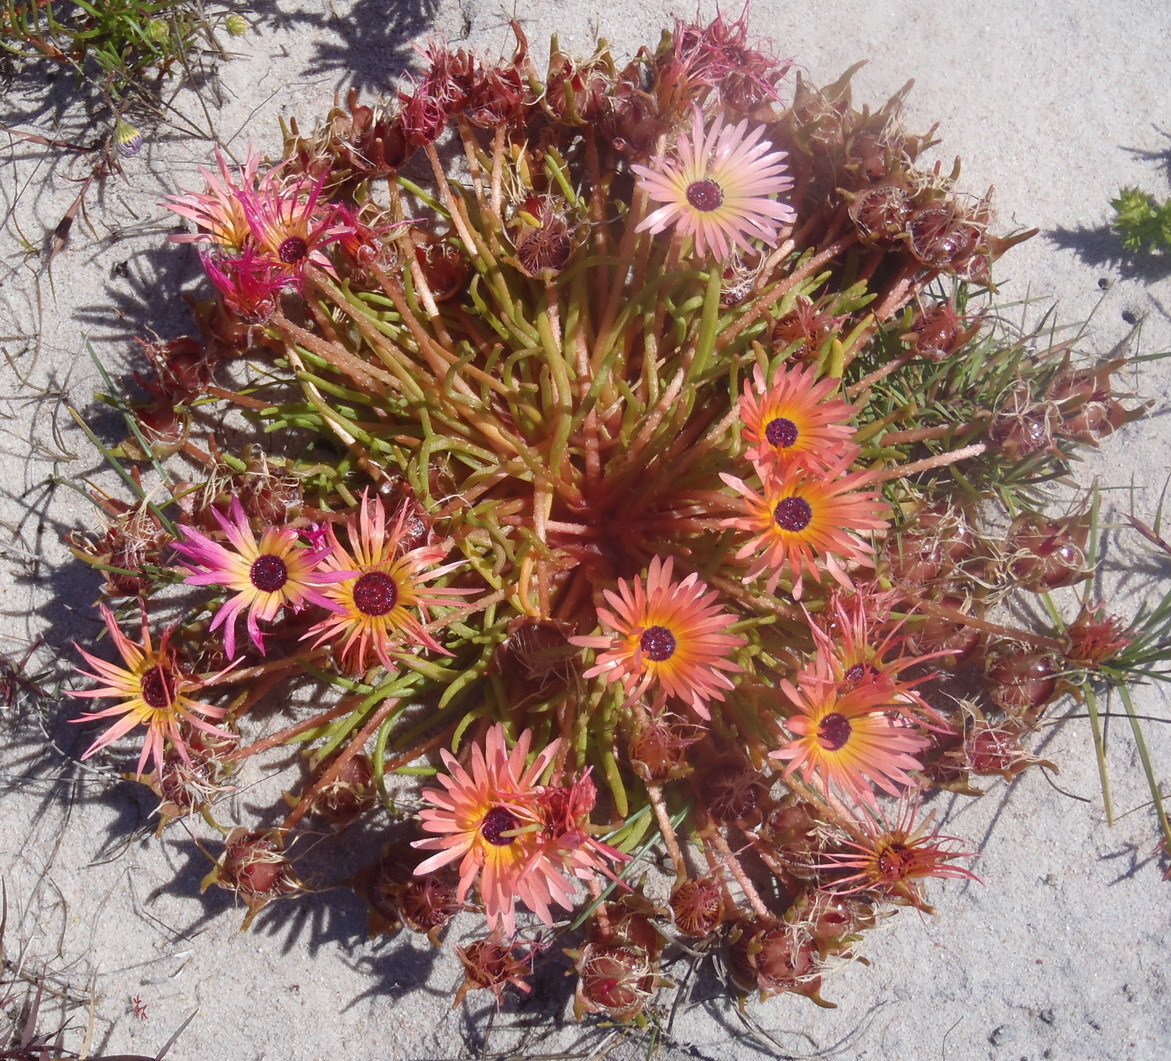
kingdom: Plantae
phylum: Tracheophyta
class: Magnoliopsida
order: Caryophyllales
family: Aizoaceae
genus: Cleretum
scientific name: Cleretum clavatum
